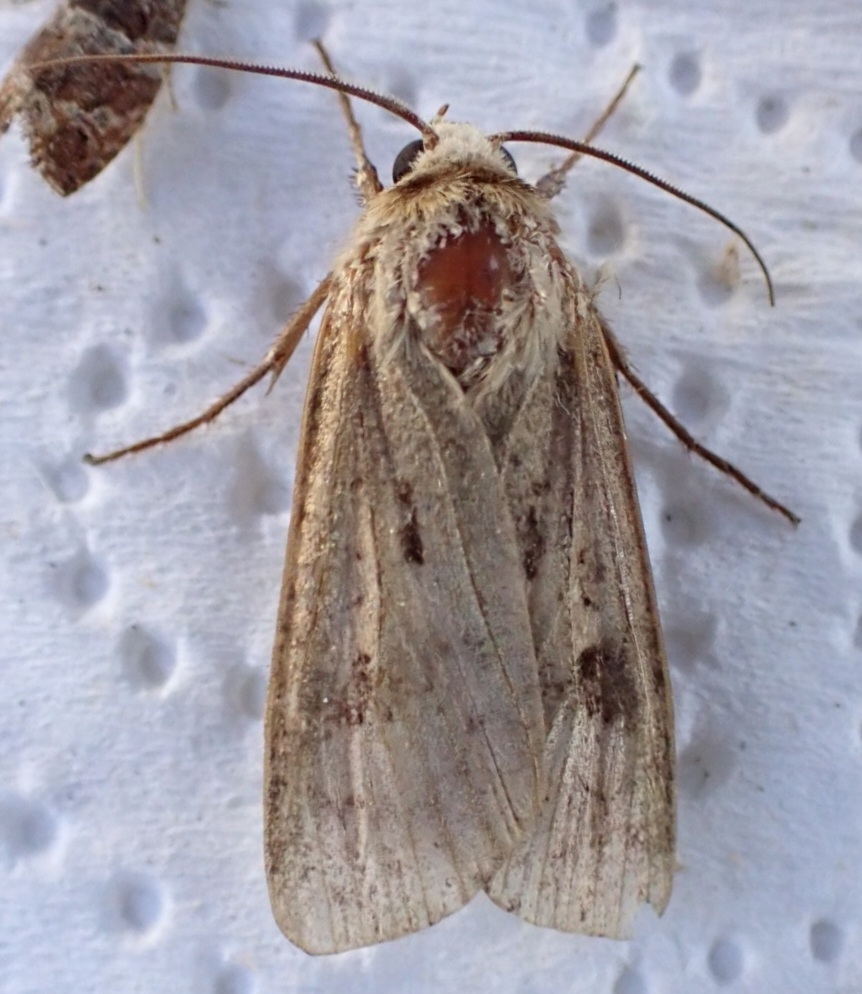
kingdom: Animalia
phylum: Arthropoda
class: Insecta
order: Lepidoptera
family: Noctuidae
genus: Agrotis
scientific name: Agrotis exclamationis
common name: Heart and dart
